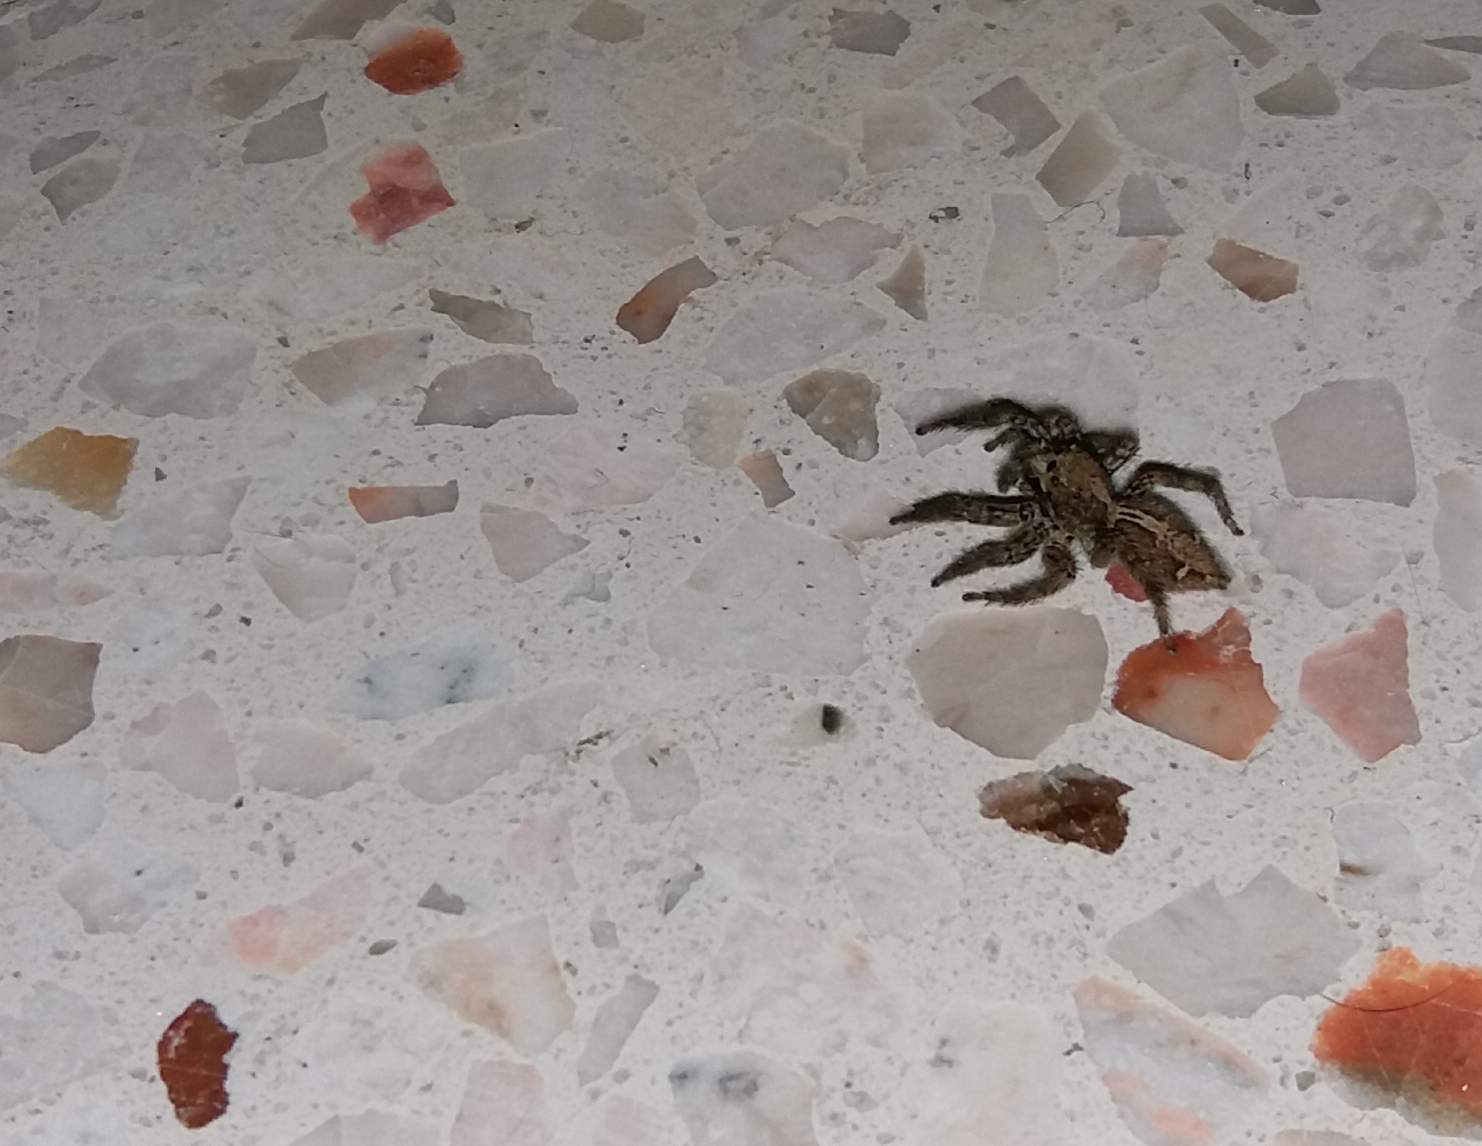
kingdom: Animalia
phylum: Arthropoda
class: Arachnida
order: Araneae
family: Salticidae
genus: Plexippus
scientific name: Plexippus paykulli
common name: Pantropical jumper
